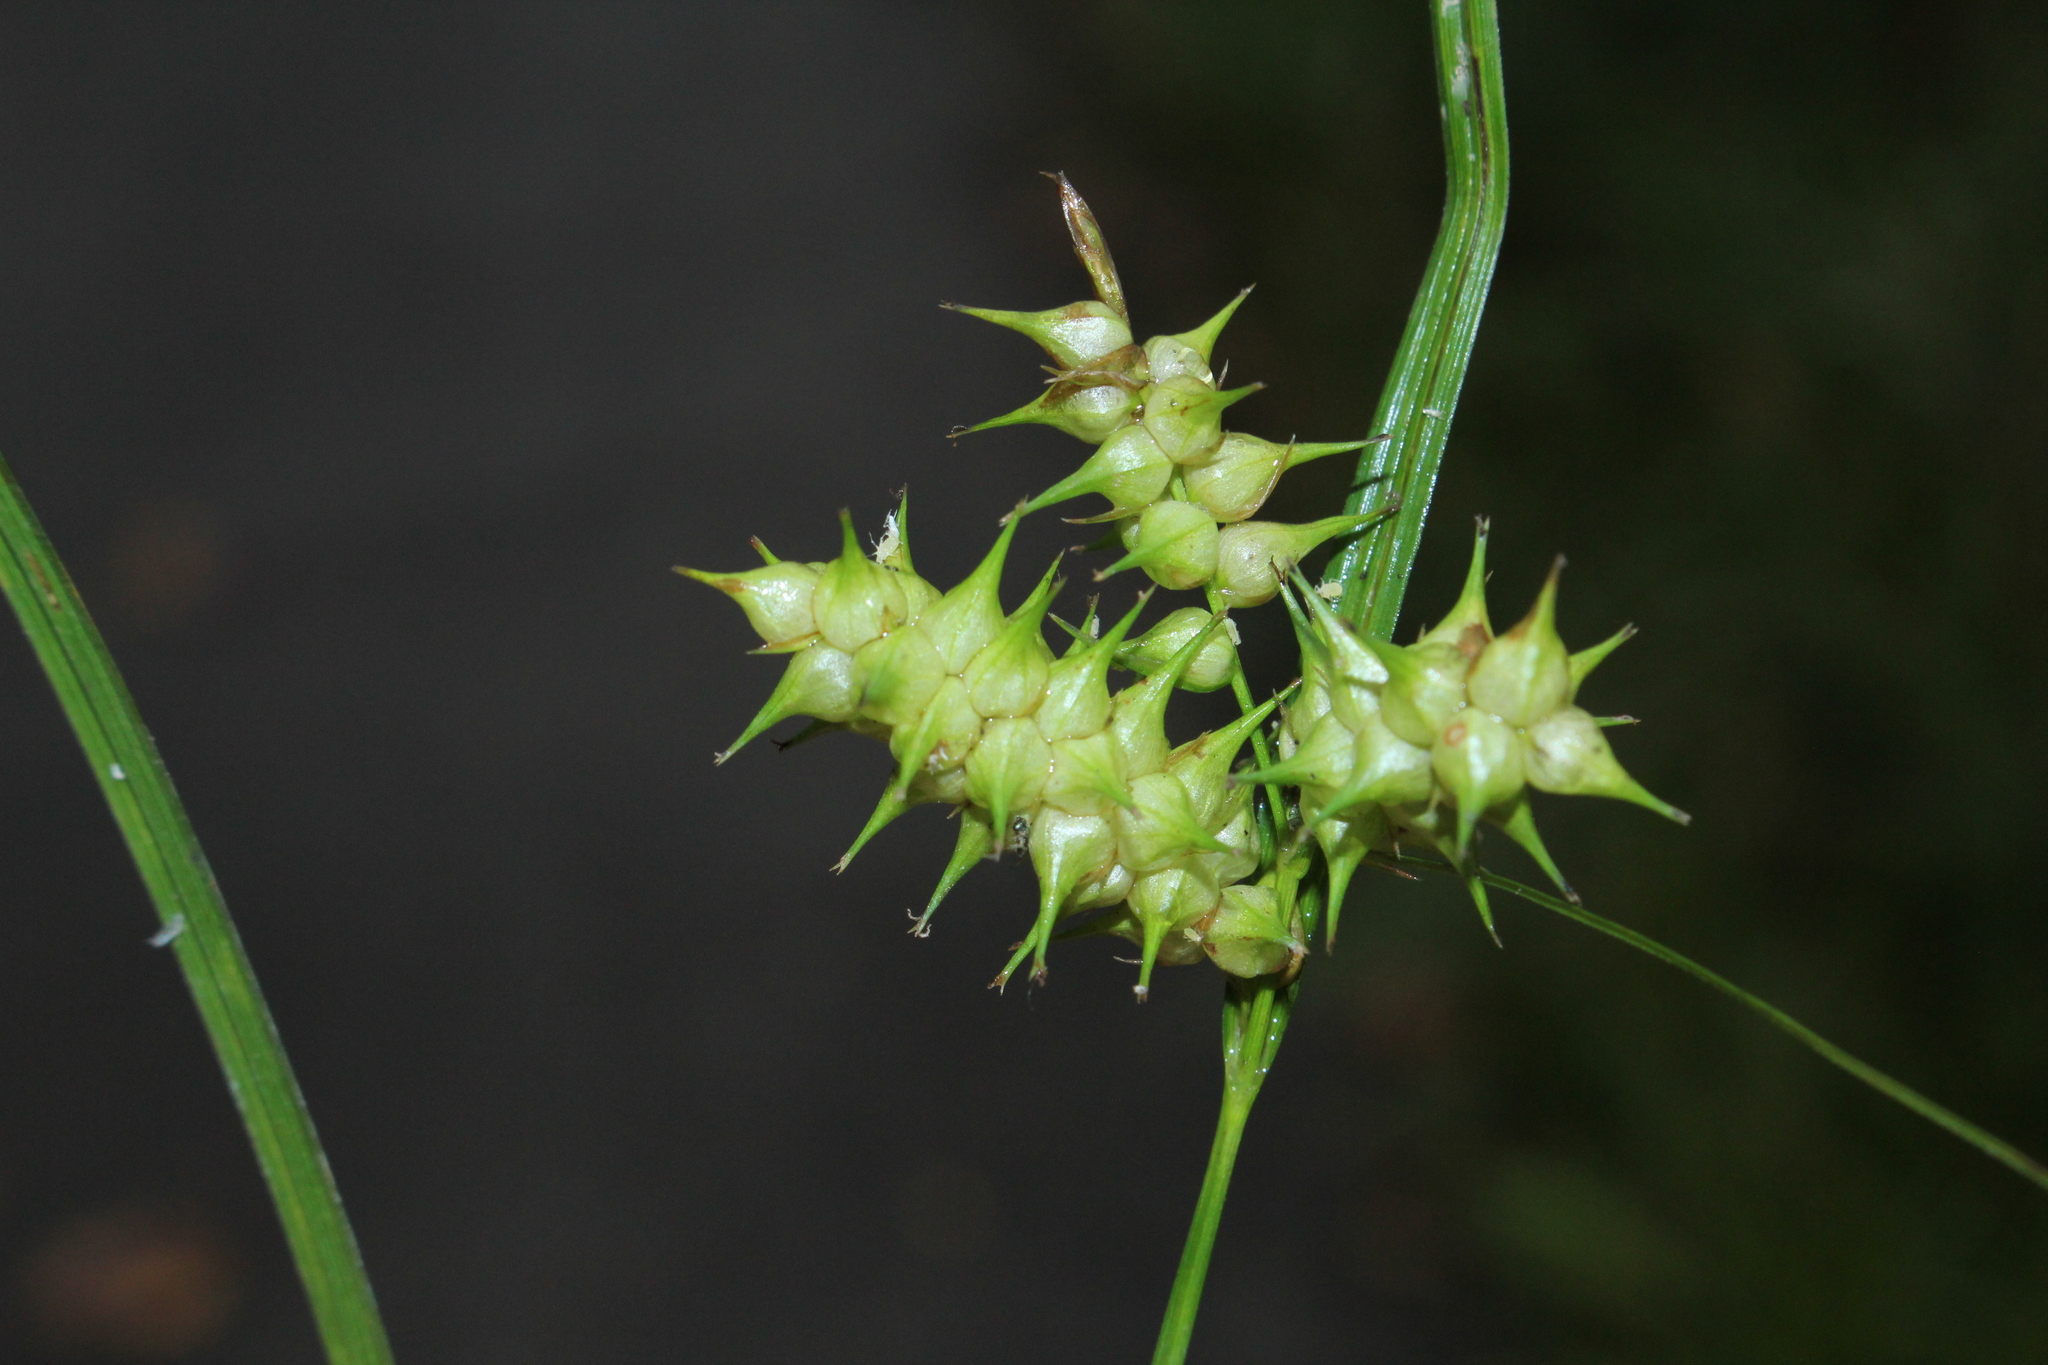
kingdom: Plantae
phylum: Tracheophyta
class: Liliopsida
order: Poales
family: Cyperaceae
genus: Carex
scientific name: Carex retrorsa
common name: Knot-sheath sedge
